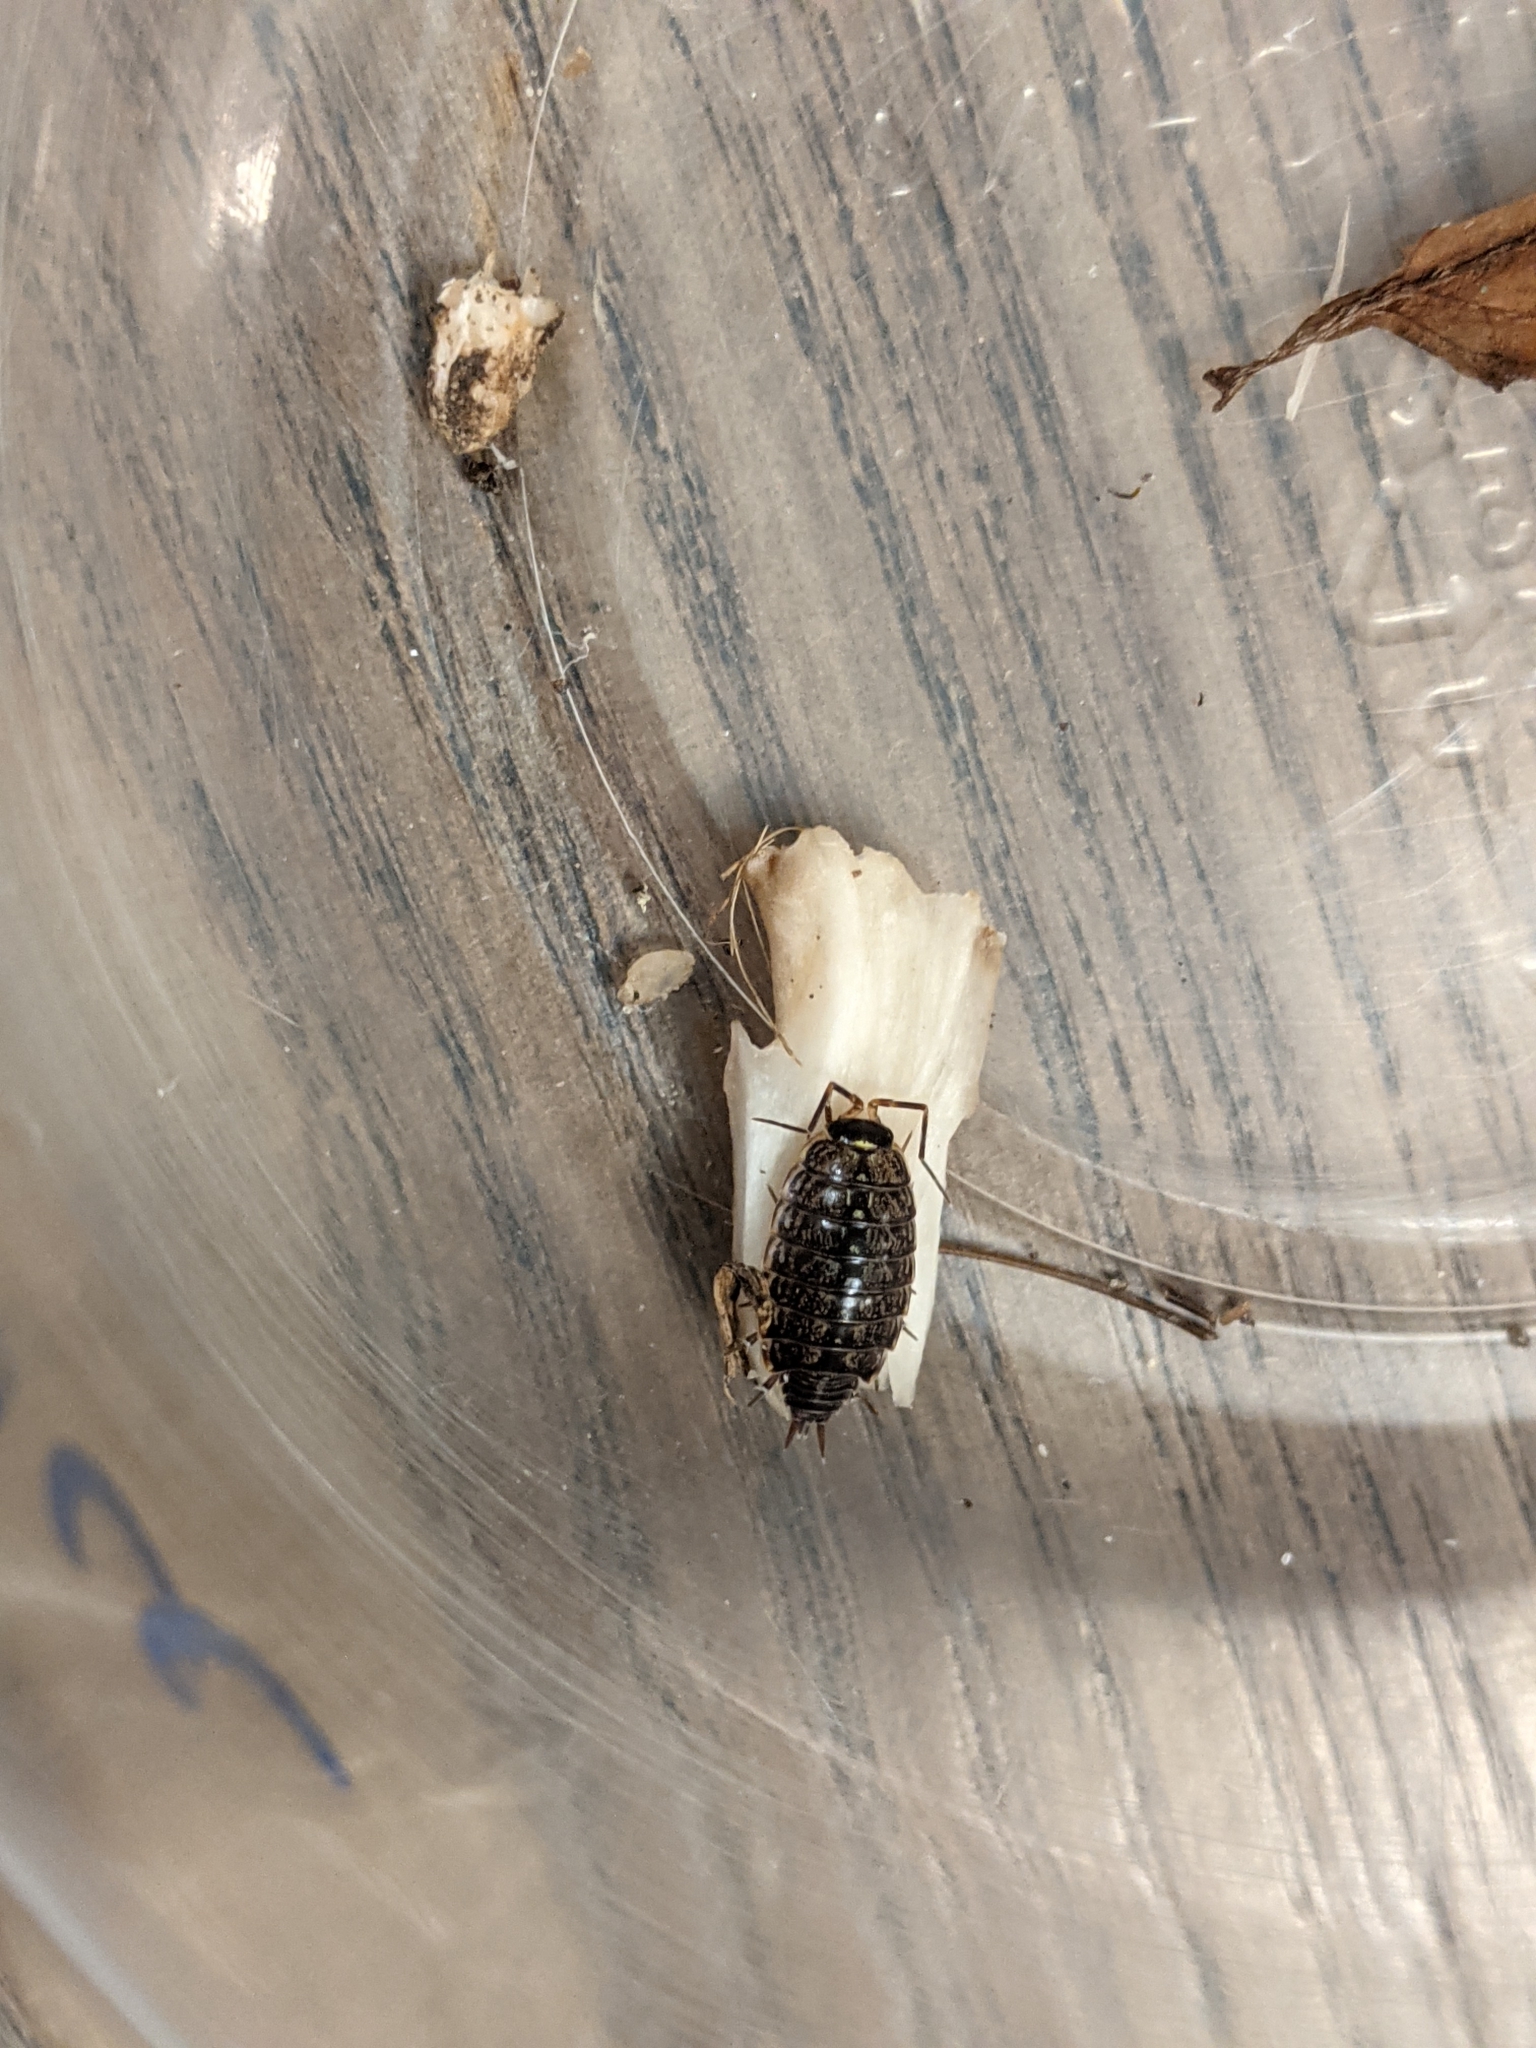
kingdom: Animalia
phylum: Arthropoda
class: Malacostraca
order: Isopoda
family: Philosciidae
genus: Philoscia
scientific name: Philoscia muscorum
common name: Common striped woodlouse
